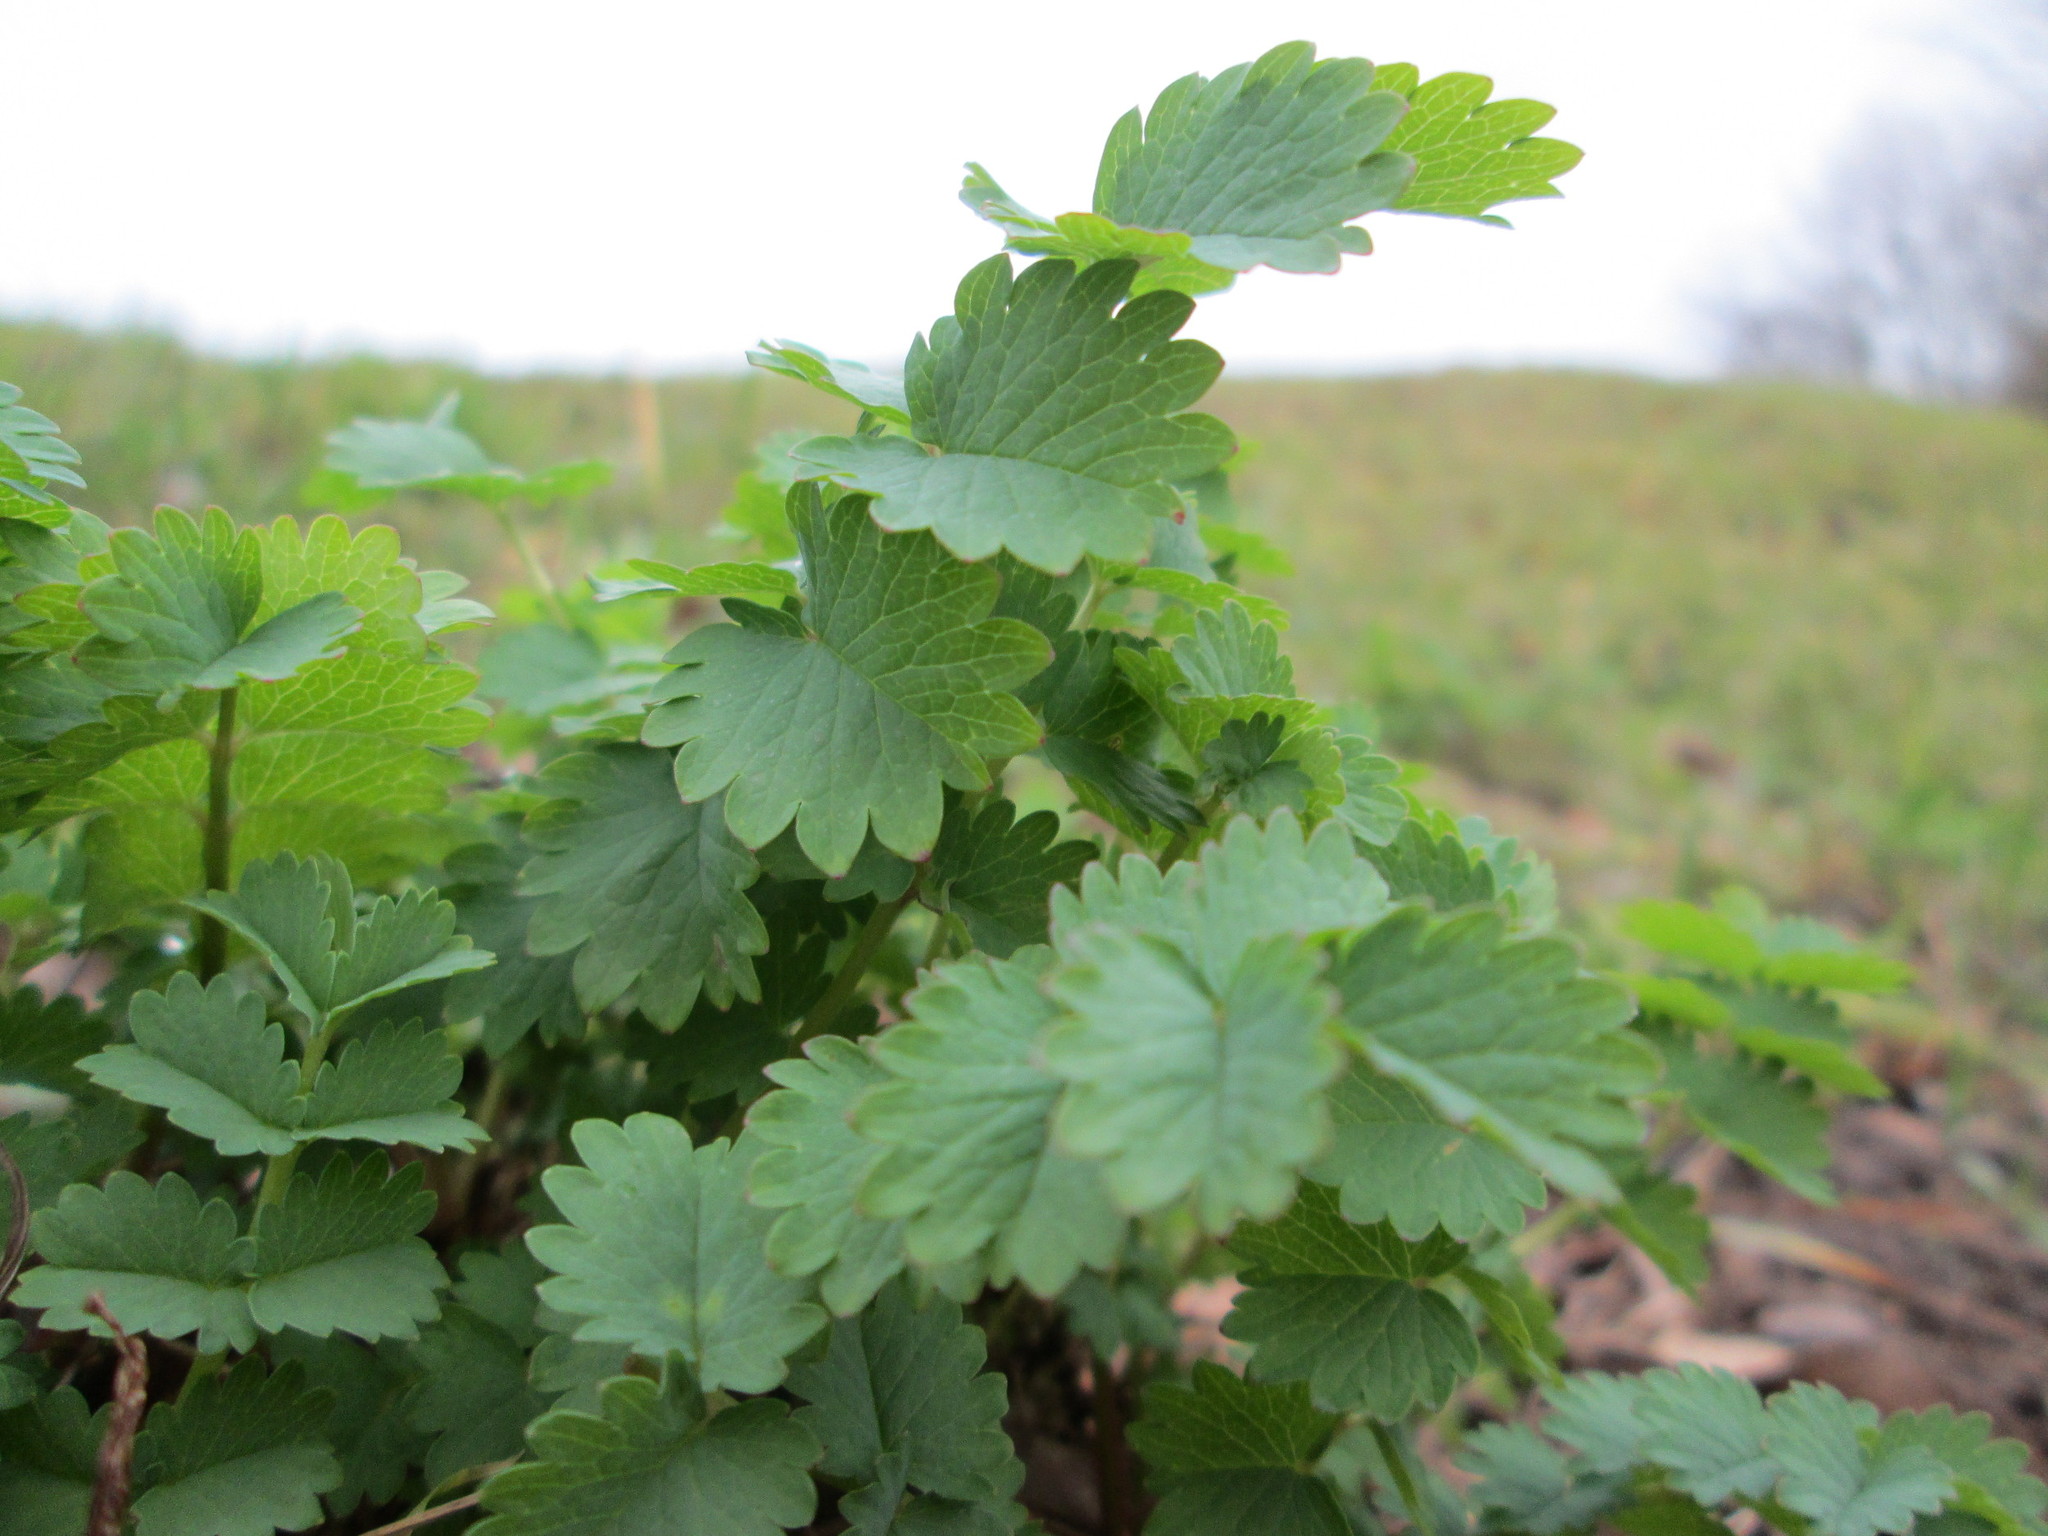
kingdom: Plantae
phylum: Tracheophyta
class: Magnoliopsida
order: Rosales
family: Rosaceae
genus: Poterium
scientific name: Poterium sanguisorba
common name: Salad burnet
